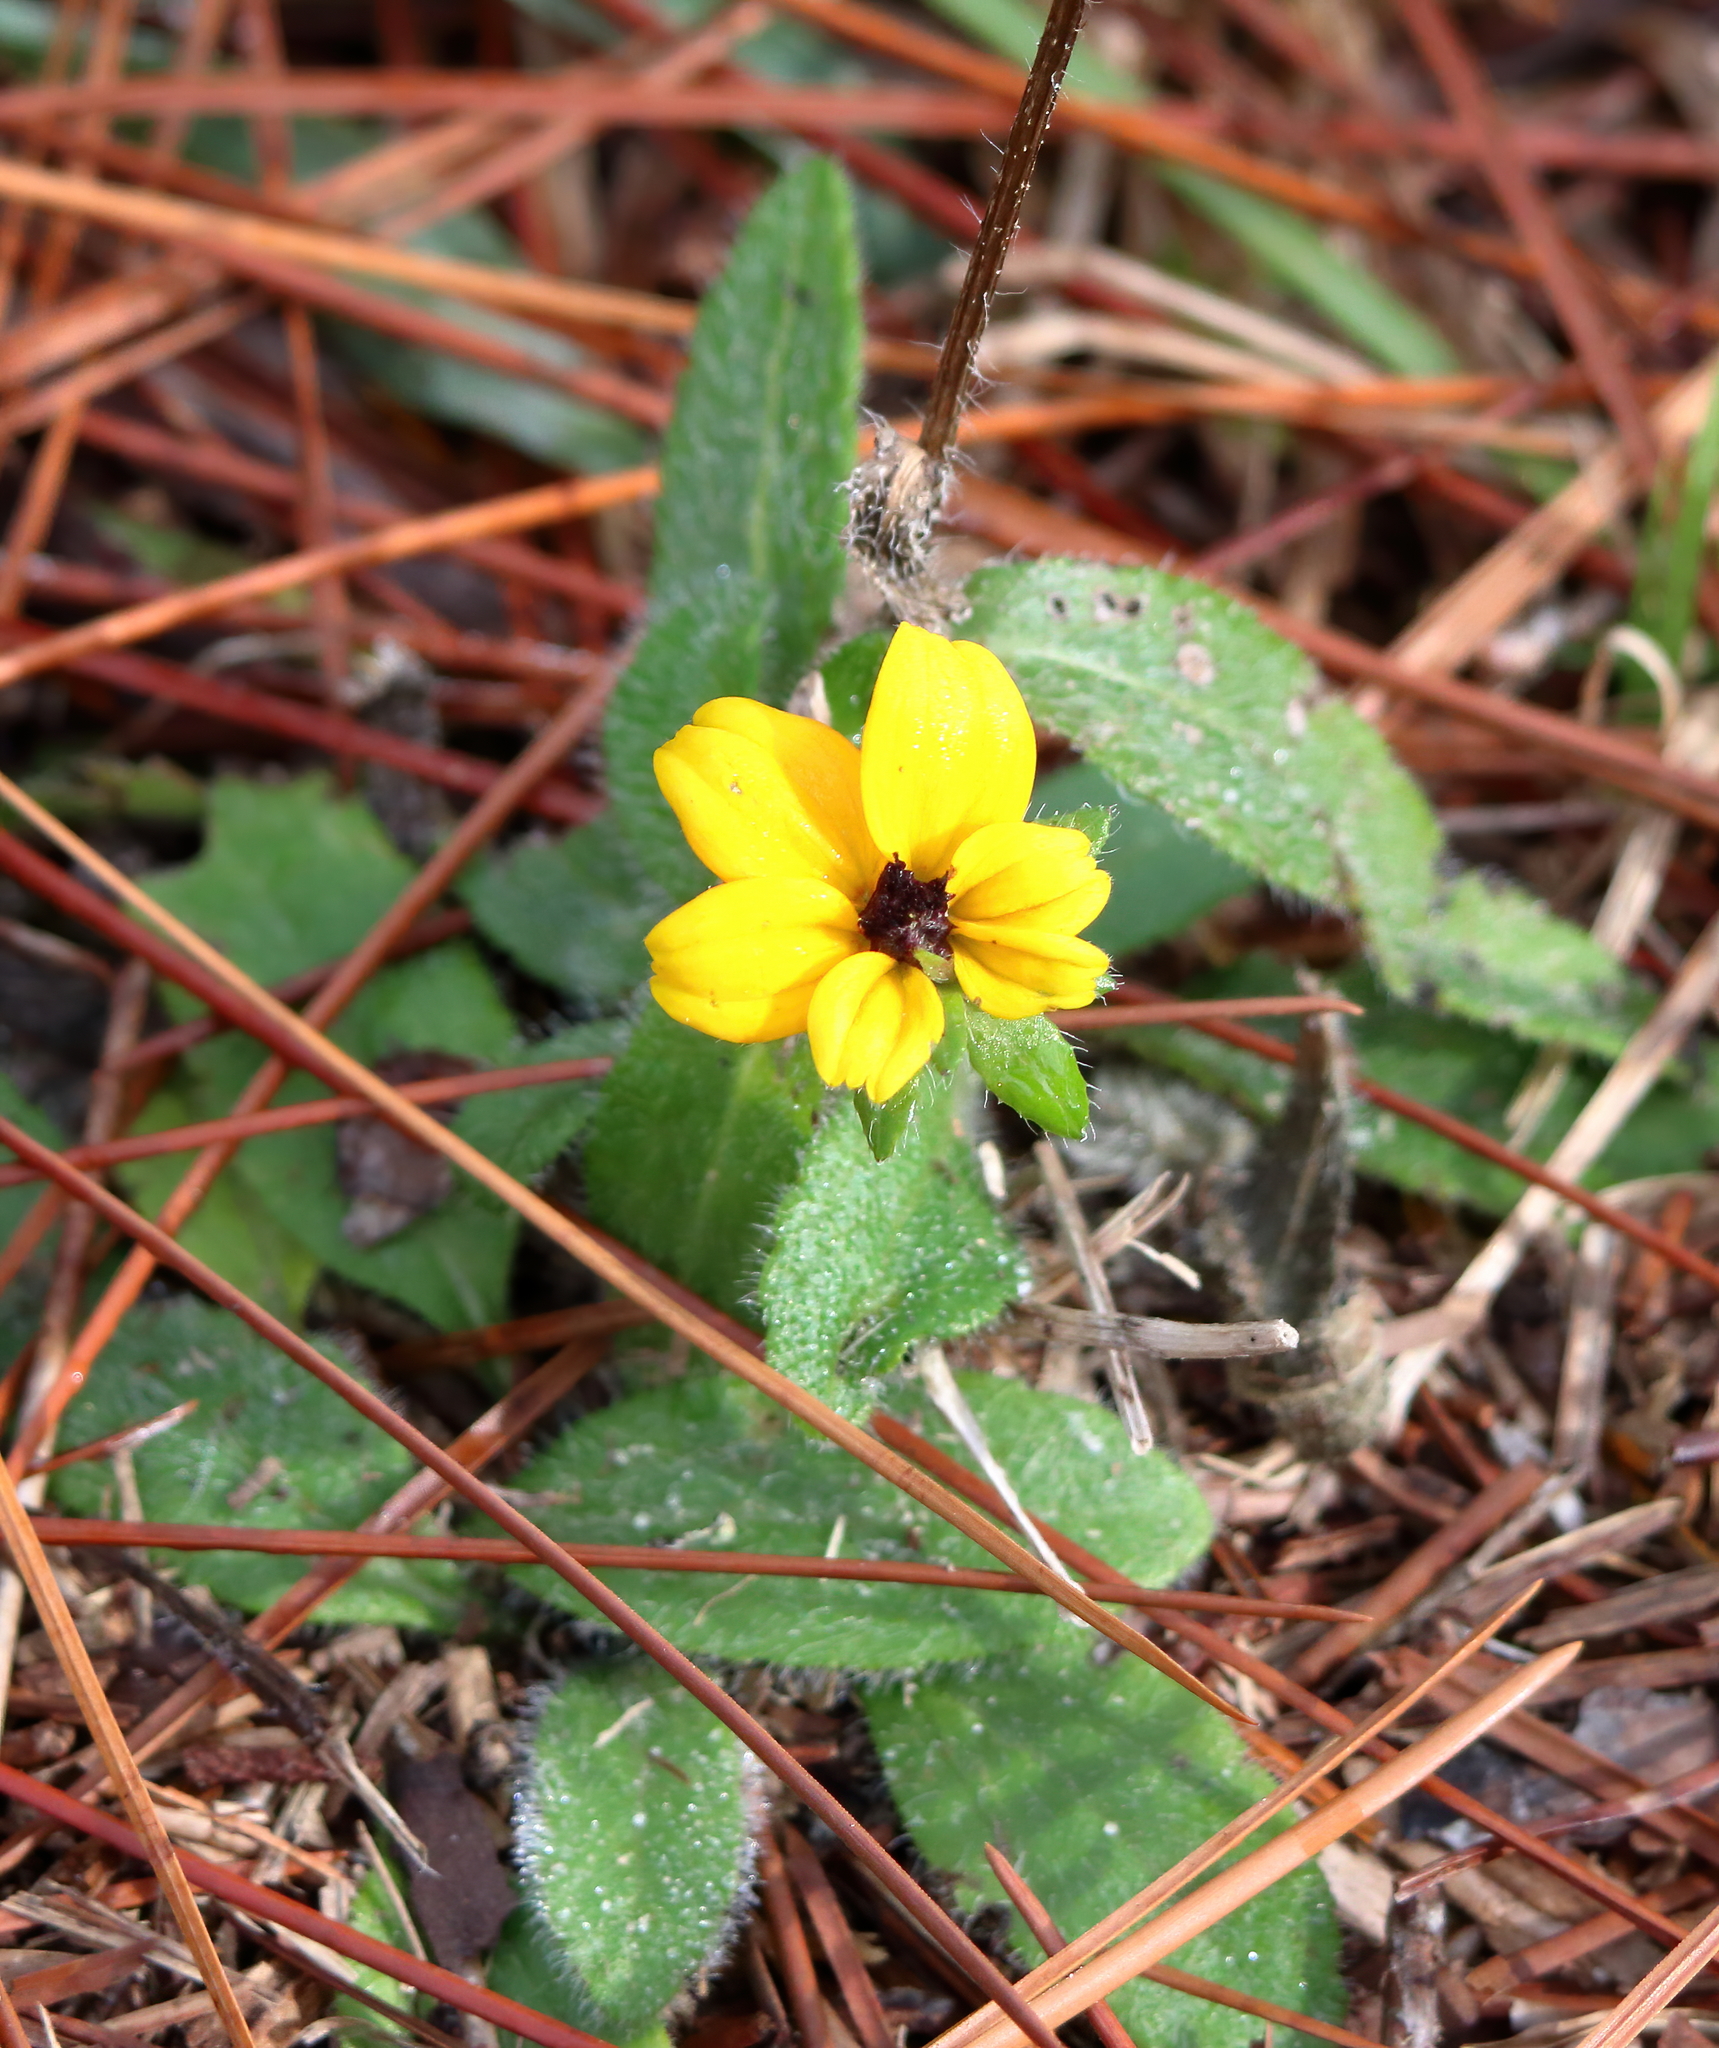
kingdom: Plantae
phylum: Tracheophyta
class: Magnoliopsida
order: Asterales
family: Asteraceae
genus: Rudbeckia
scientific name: Rudbeckia hirta
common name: Black-eyed-susan
